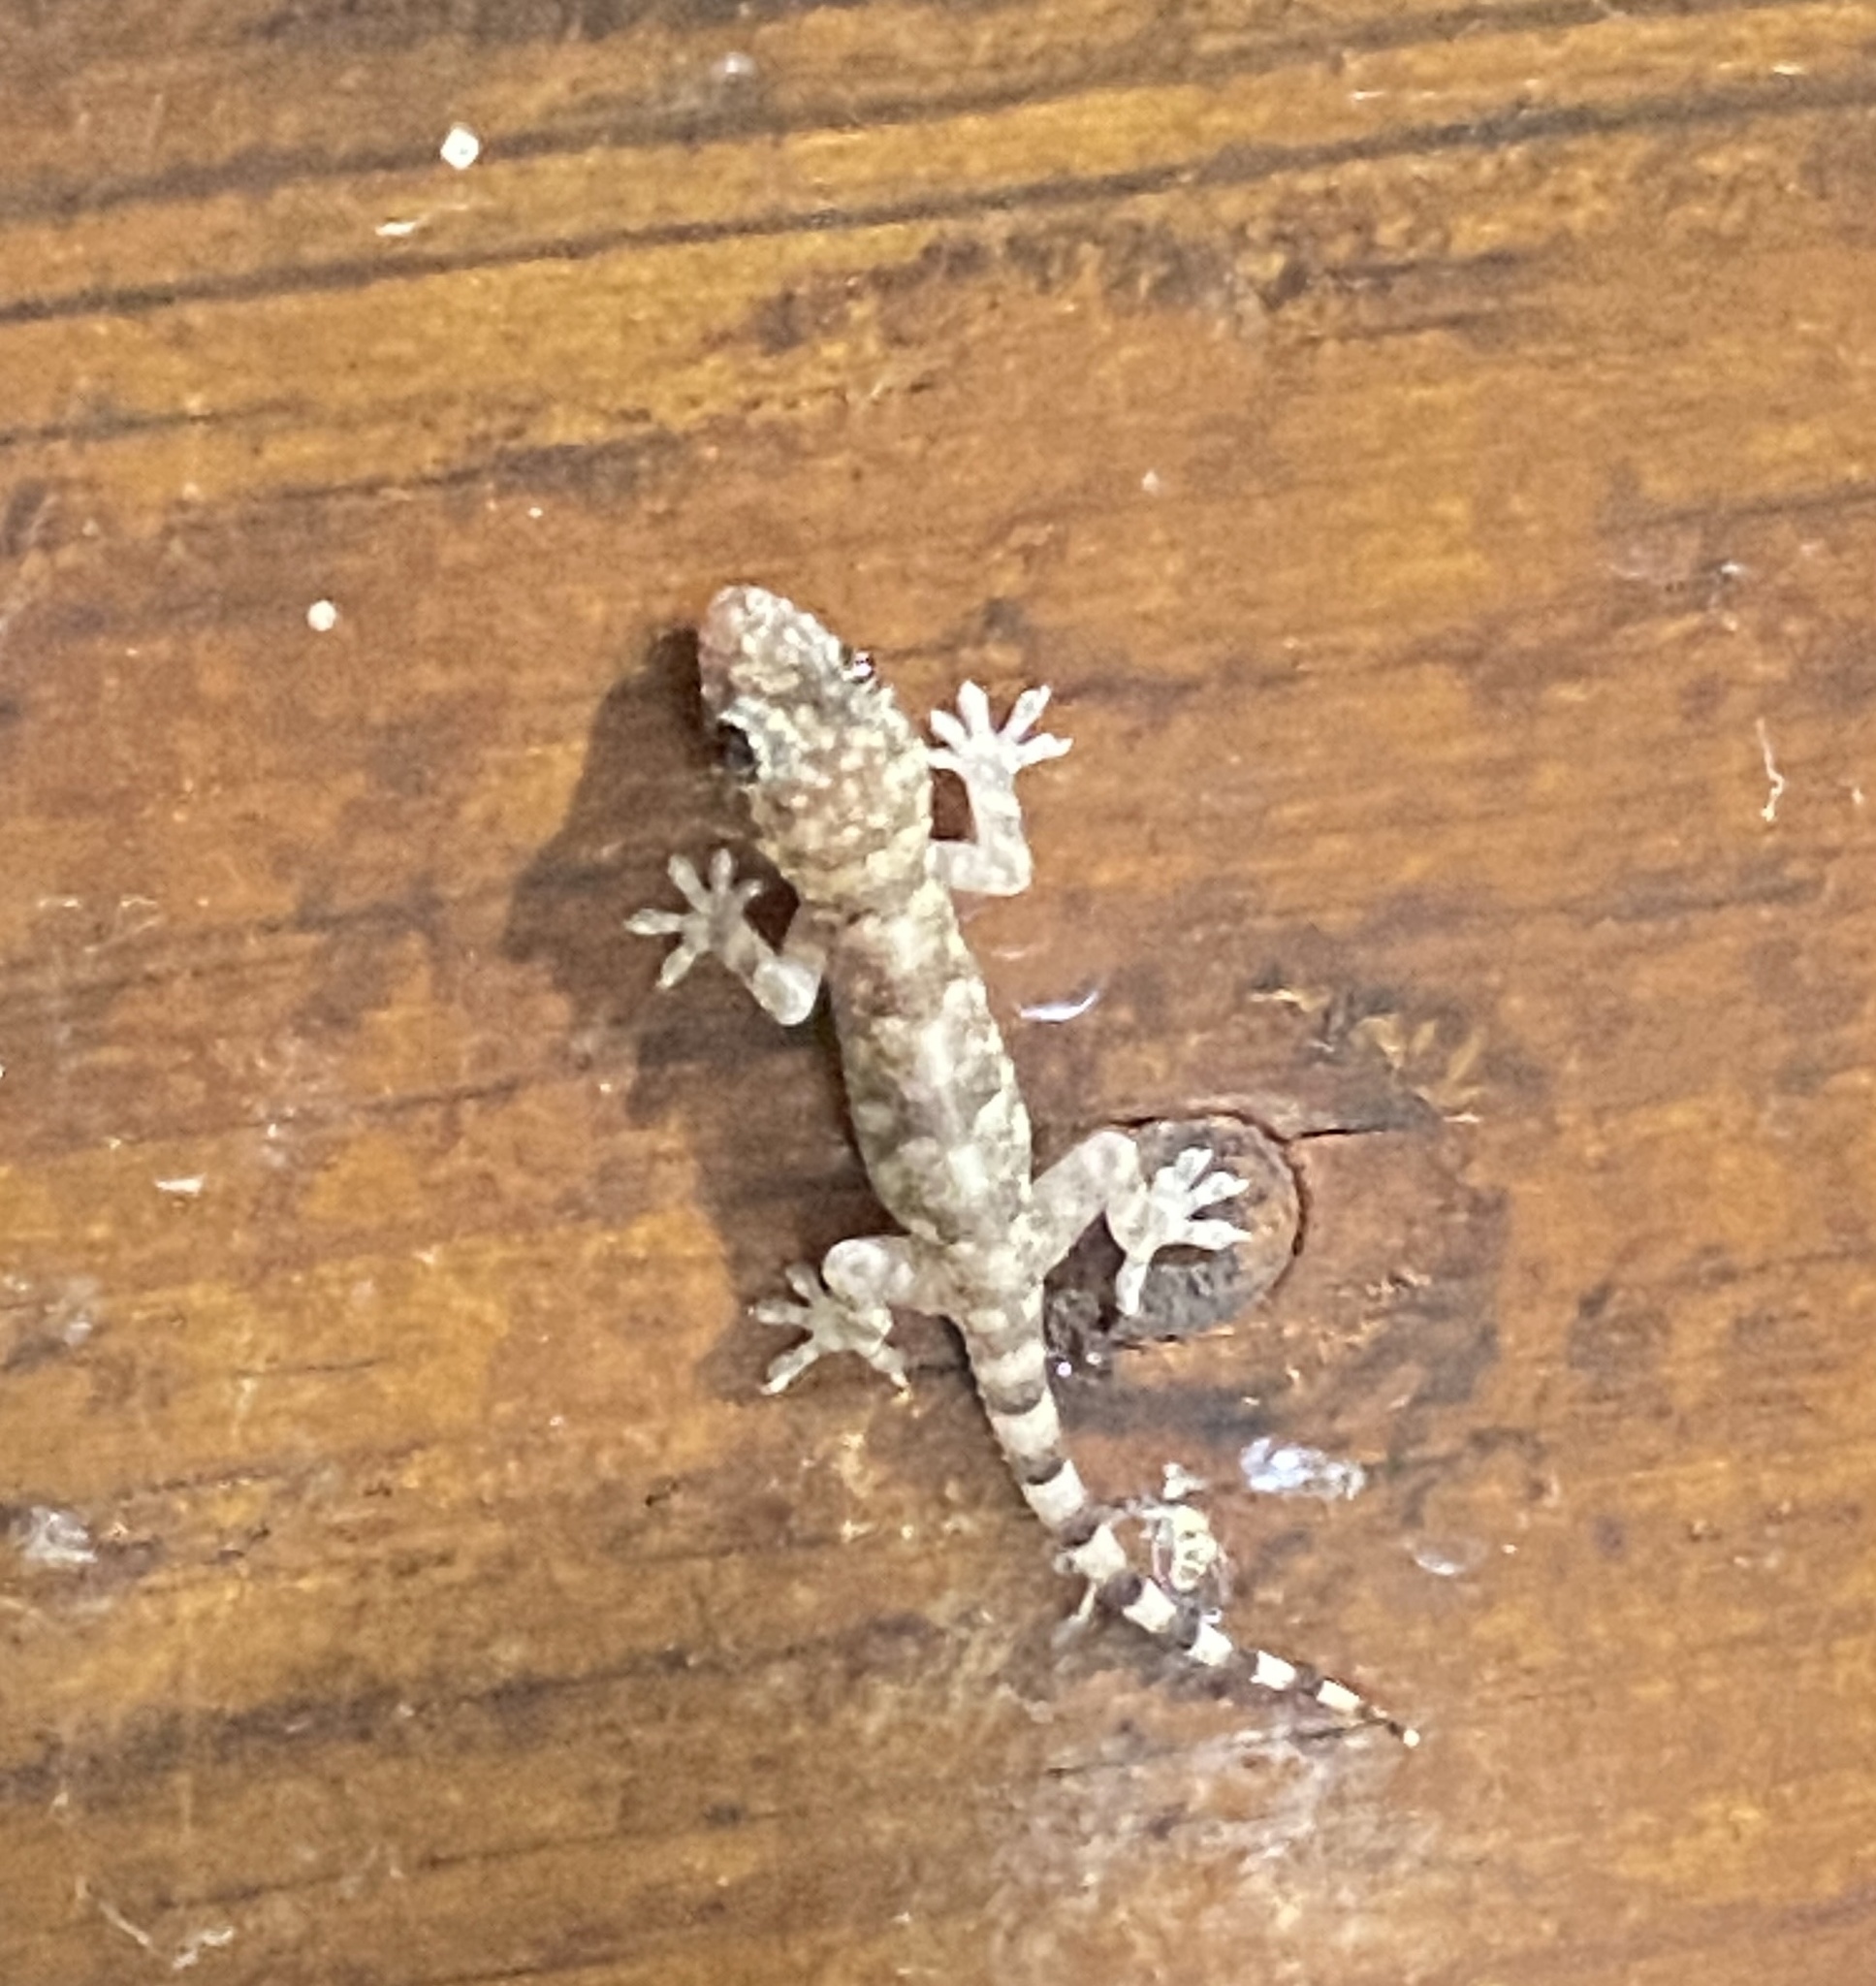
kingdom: Animalia
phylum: Chordata
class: Squamata
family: Gekkonidae
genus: Hemidactylus
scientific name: Hemidactylus mabouia
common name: House gecko
